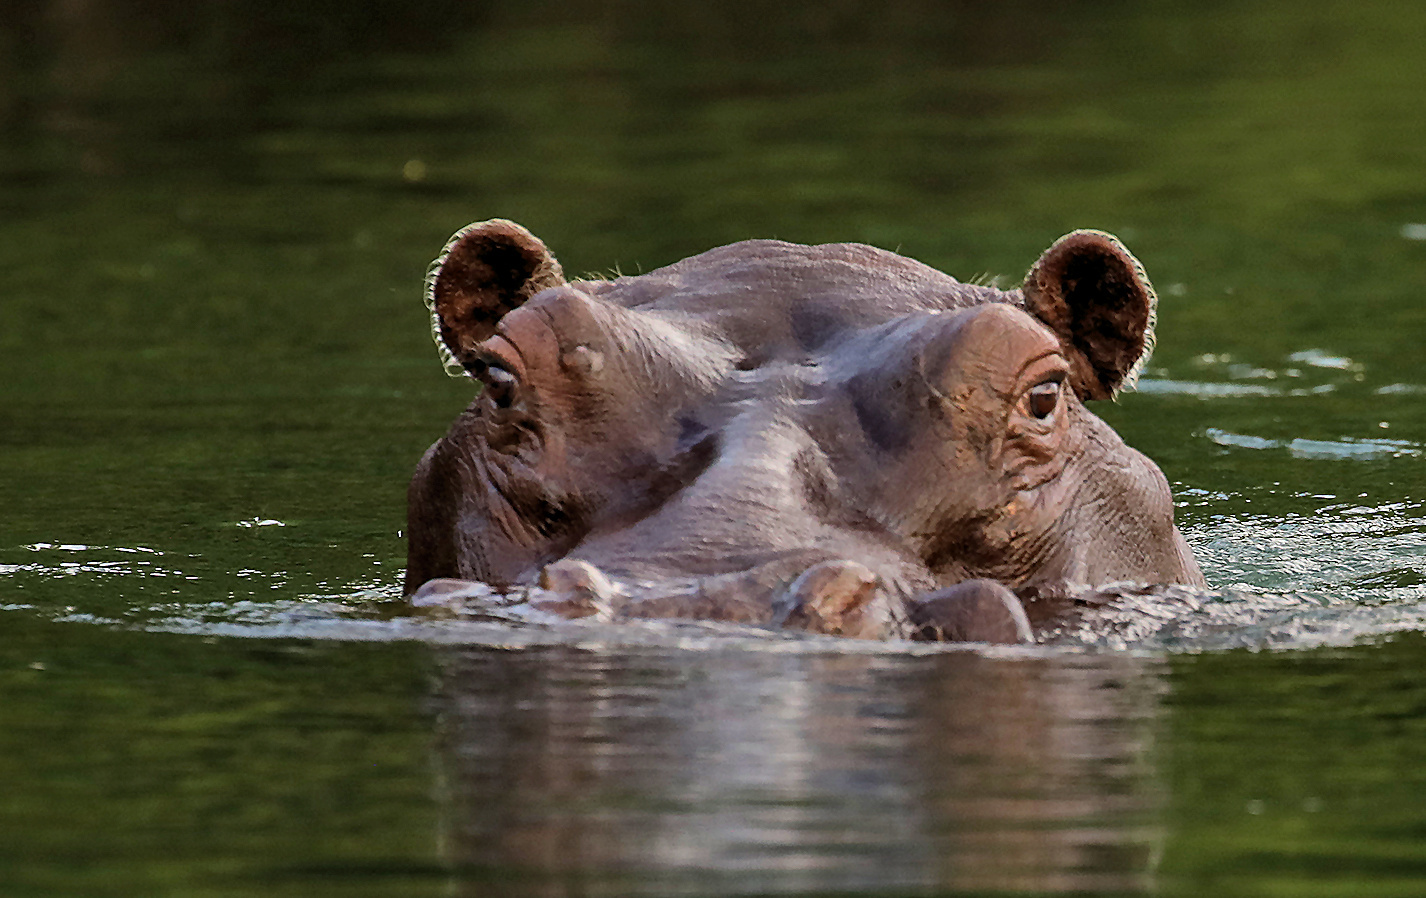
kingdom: Animalia
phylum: Chordata
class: Mammalia
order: Artiodactyla
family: Hippopotamidae
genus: Hippopotamus
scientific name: Hippopotamus amphibius
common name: Common hippopotamus
